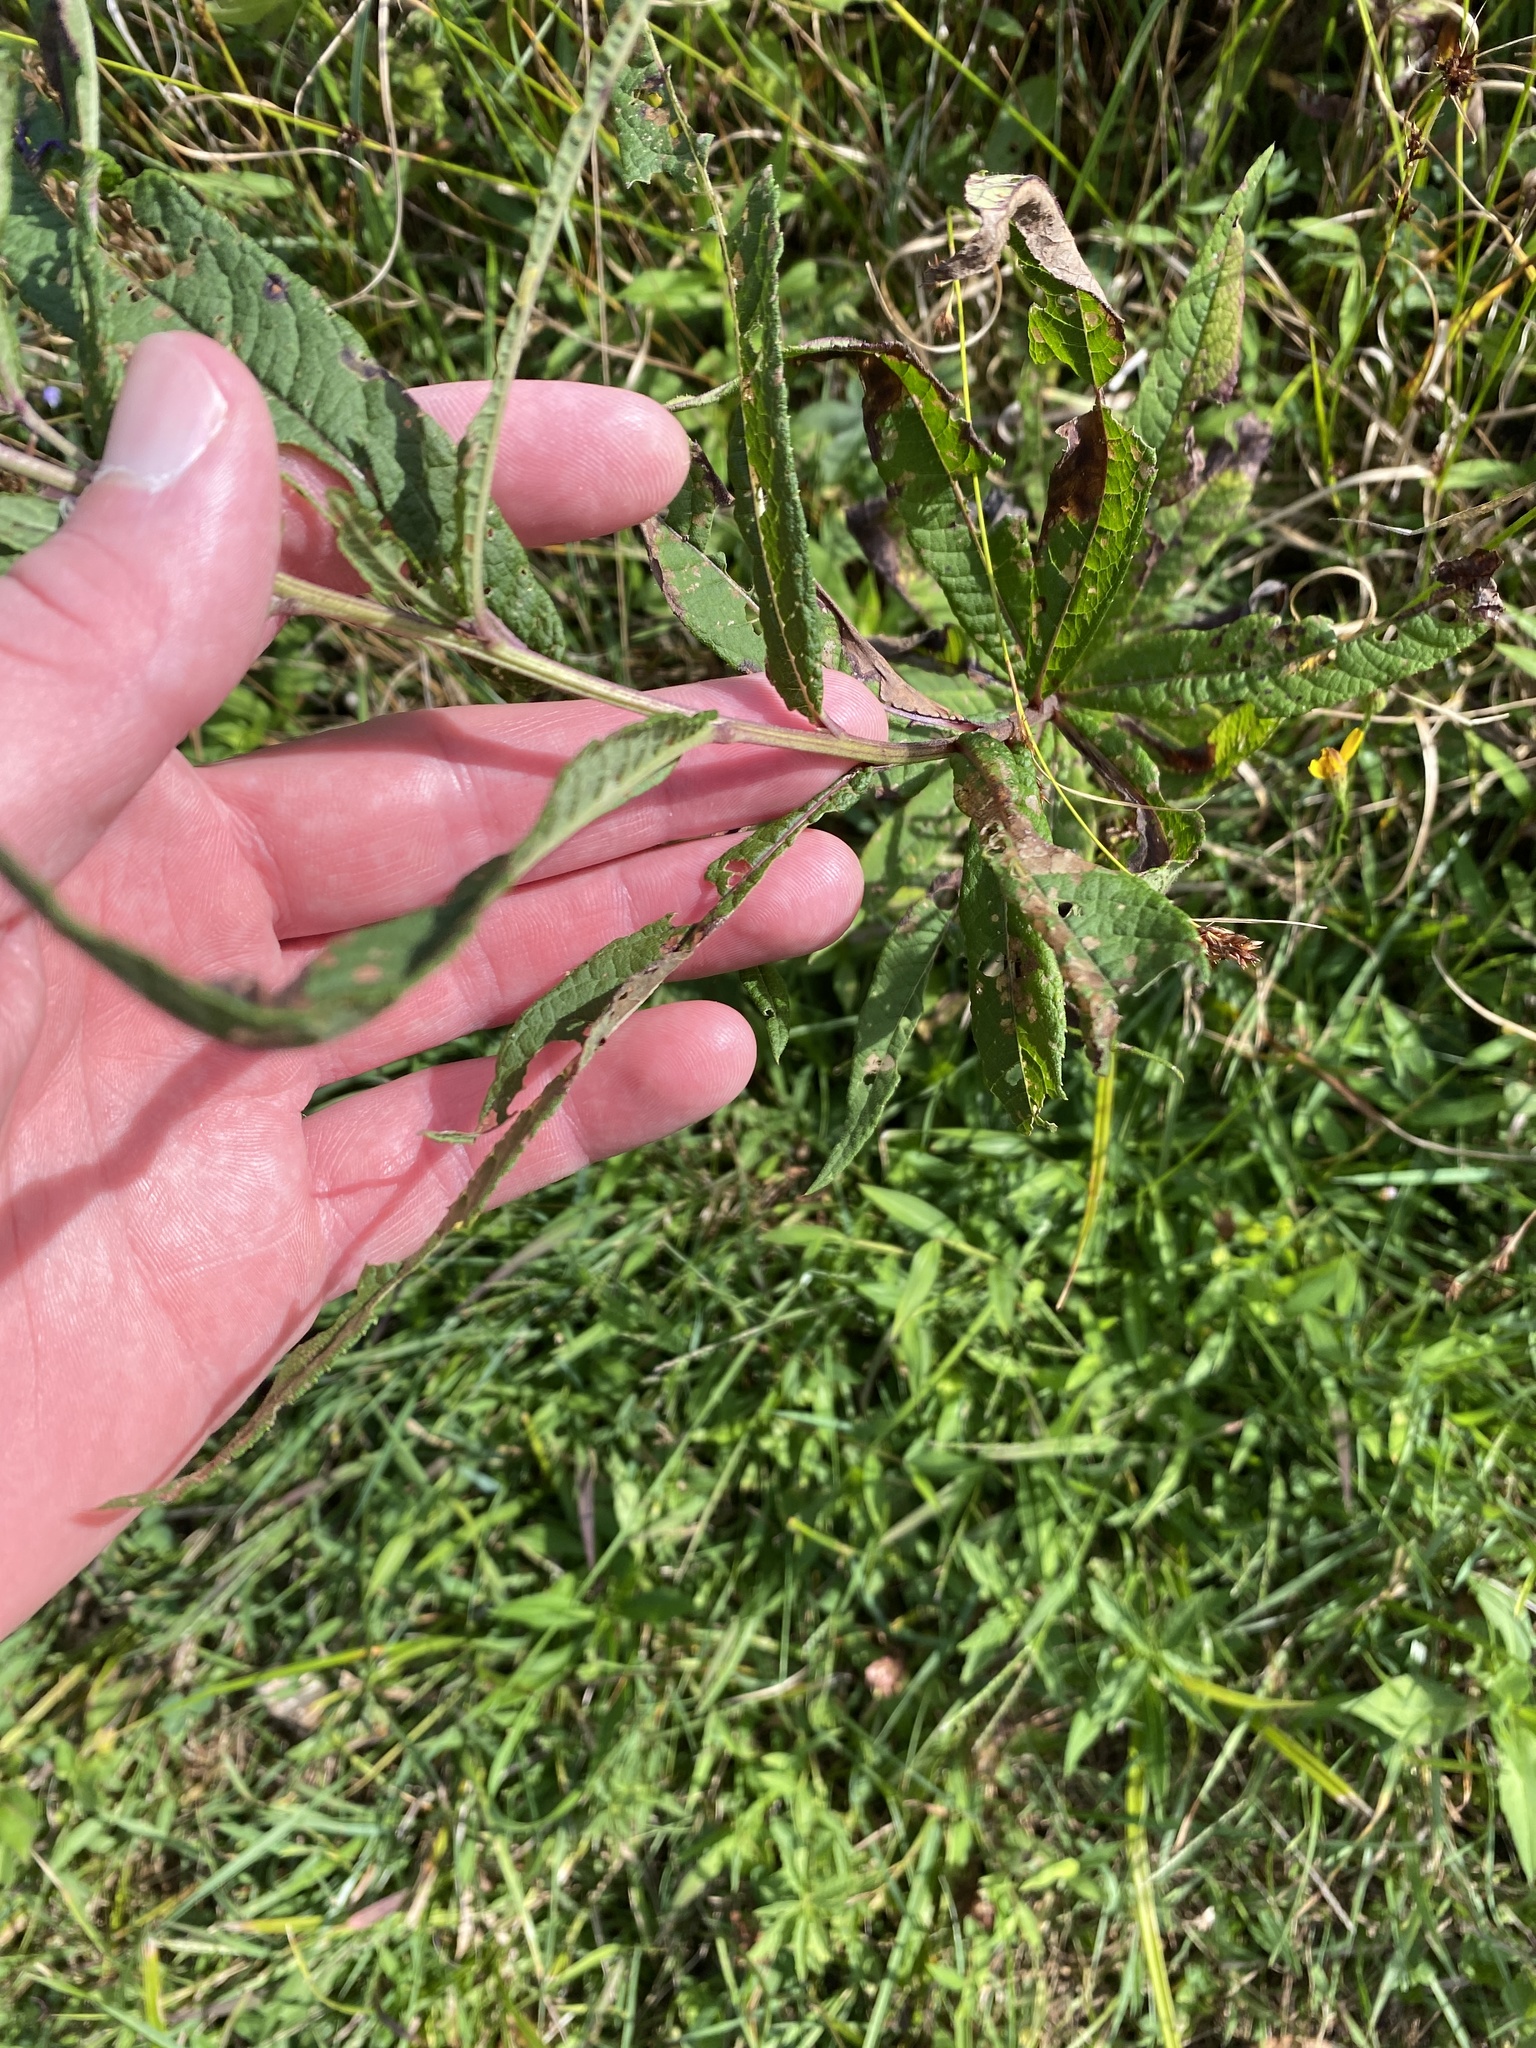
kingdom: Plantae
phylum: Tracheophyta
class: Magnoliopsida
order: Asterales
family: Asteraceae
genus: Vernonia
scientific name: Vernonia noveboracensis
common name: New york ironweed
